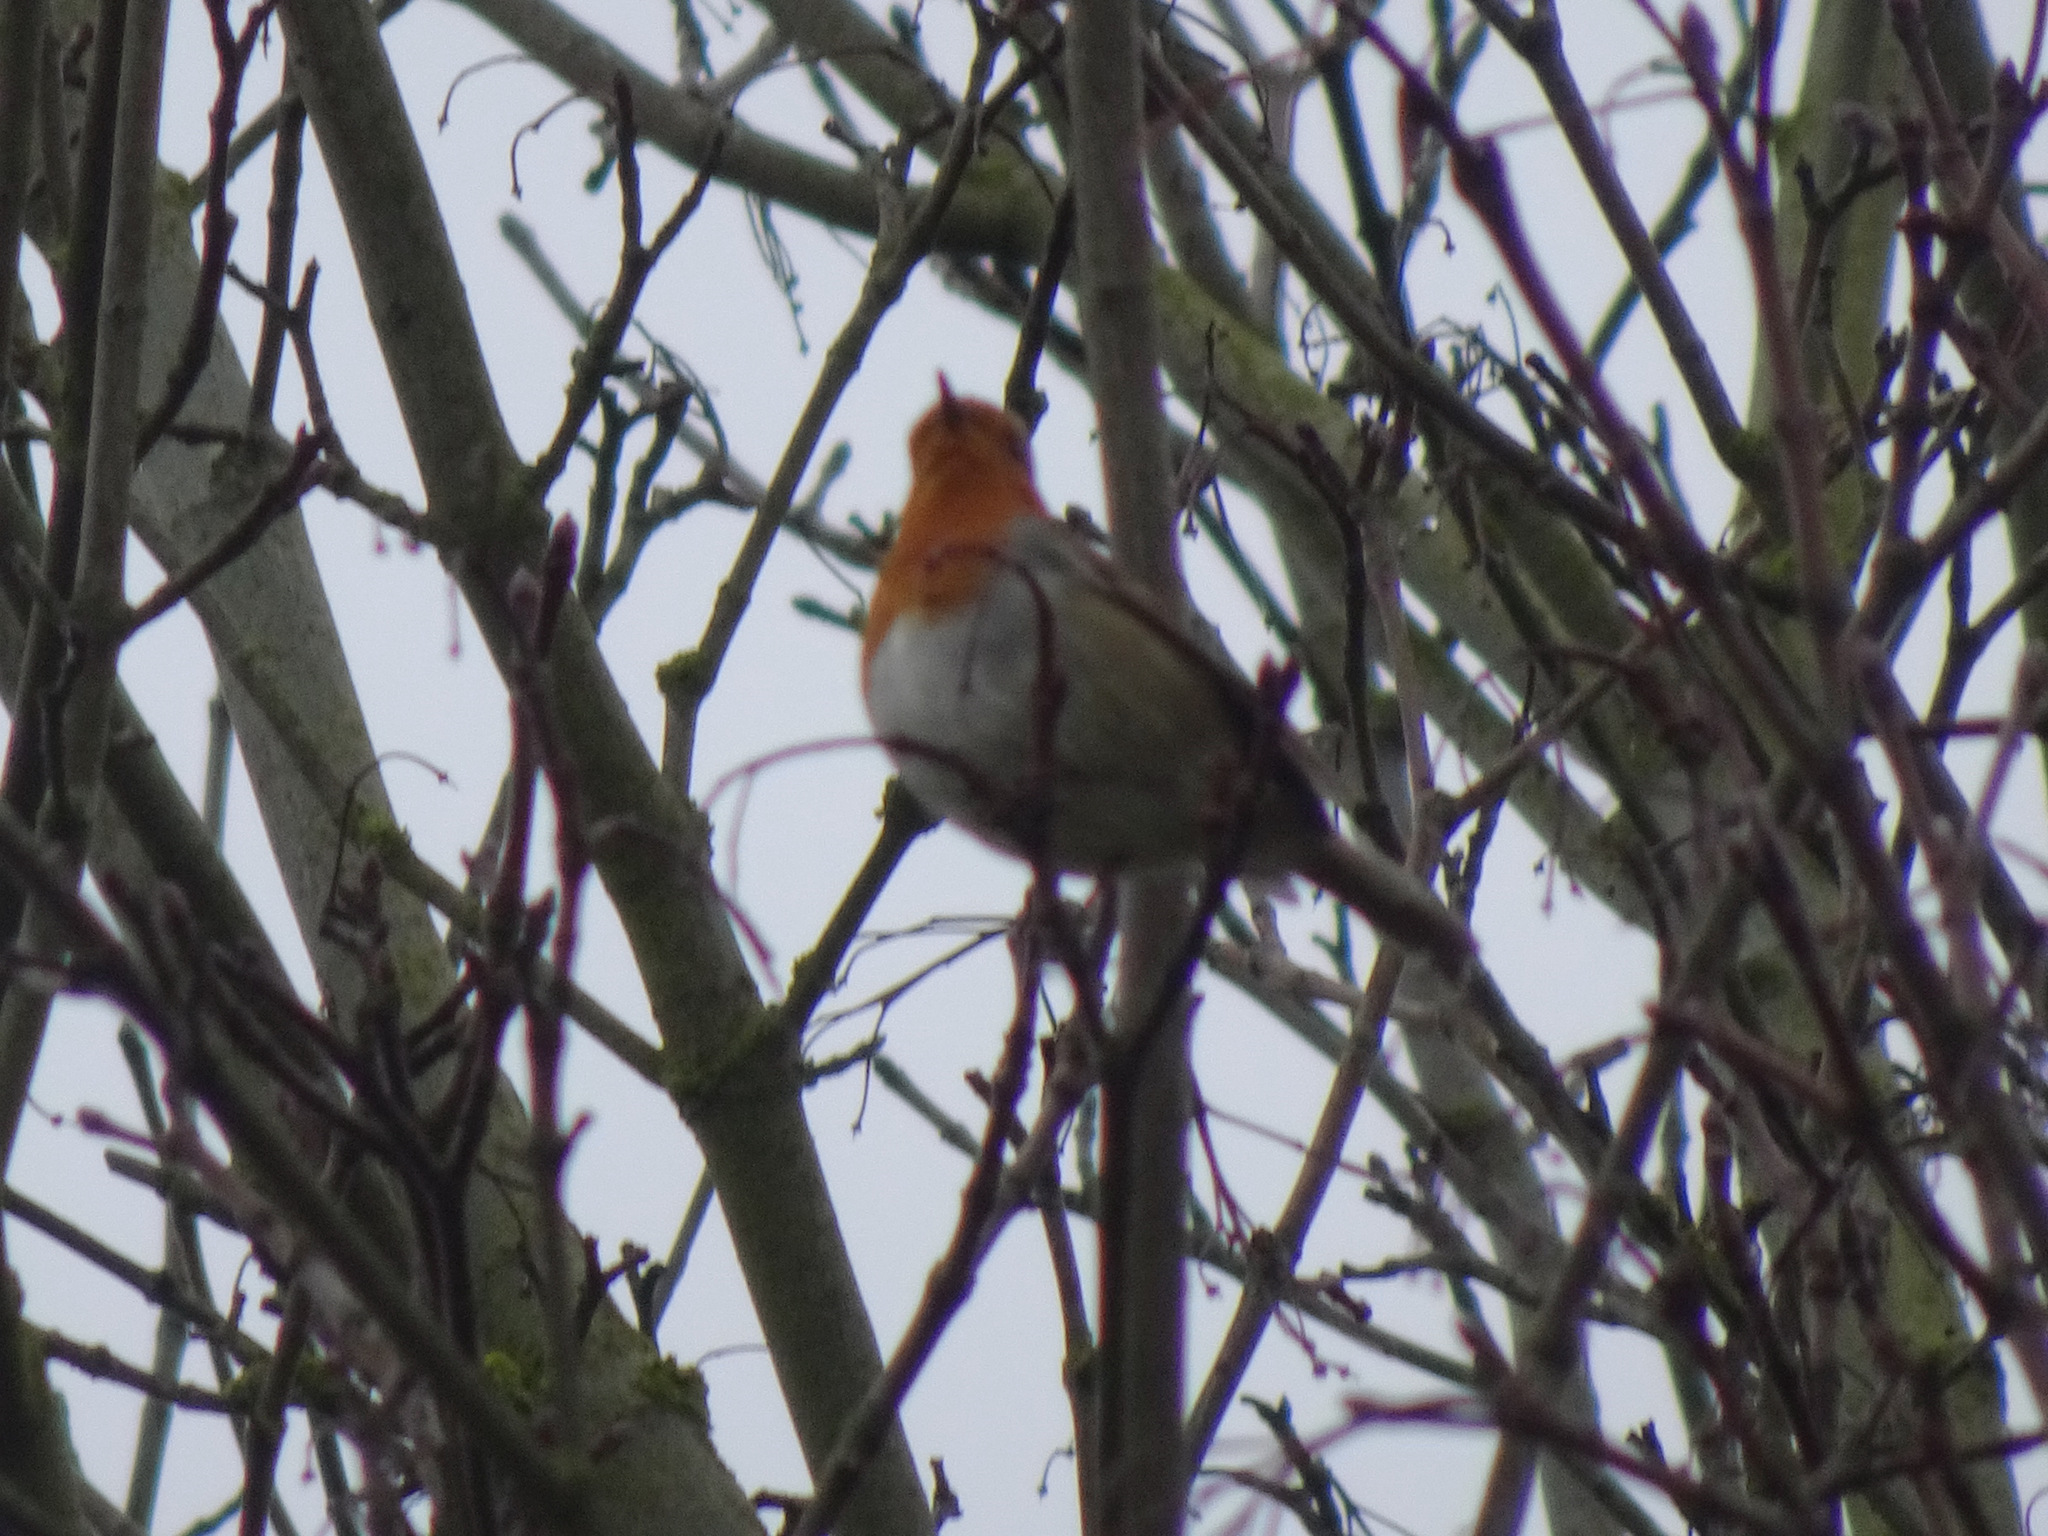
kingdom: Animalia
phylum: Chordata
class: Aves
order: Passeriformes
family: Muscicapidae
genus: Erithacus
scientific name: Erithacus rubecula
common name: European robin
